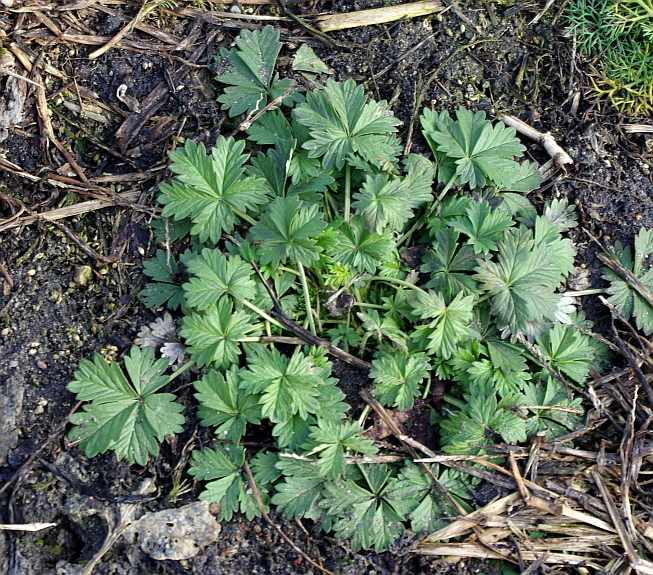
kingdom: Plantae
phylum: Tracheophyta
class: Magnoliopsida
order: Rosales
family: Rosaceae
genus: Potentilla
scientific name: Potentilla argentea
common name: Hoary cinquefoil
